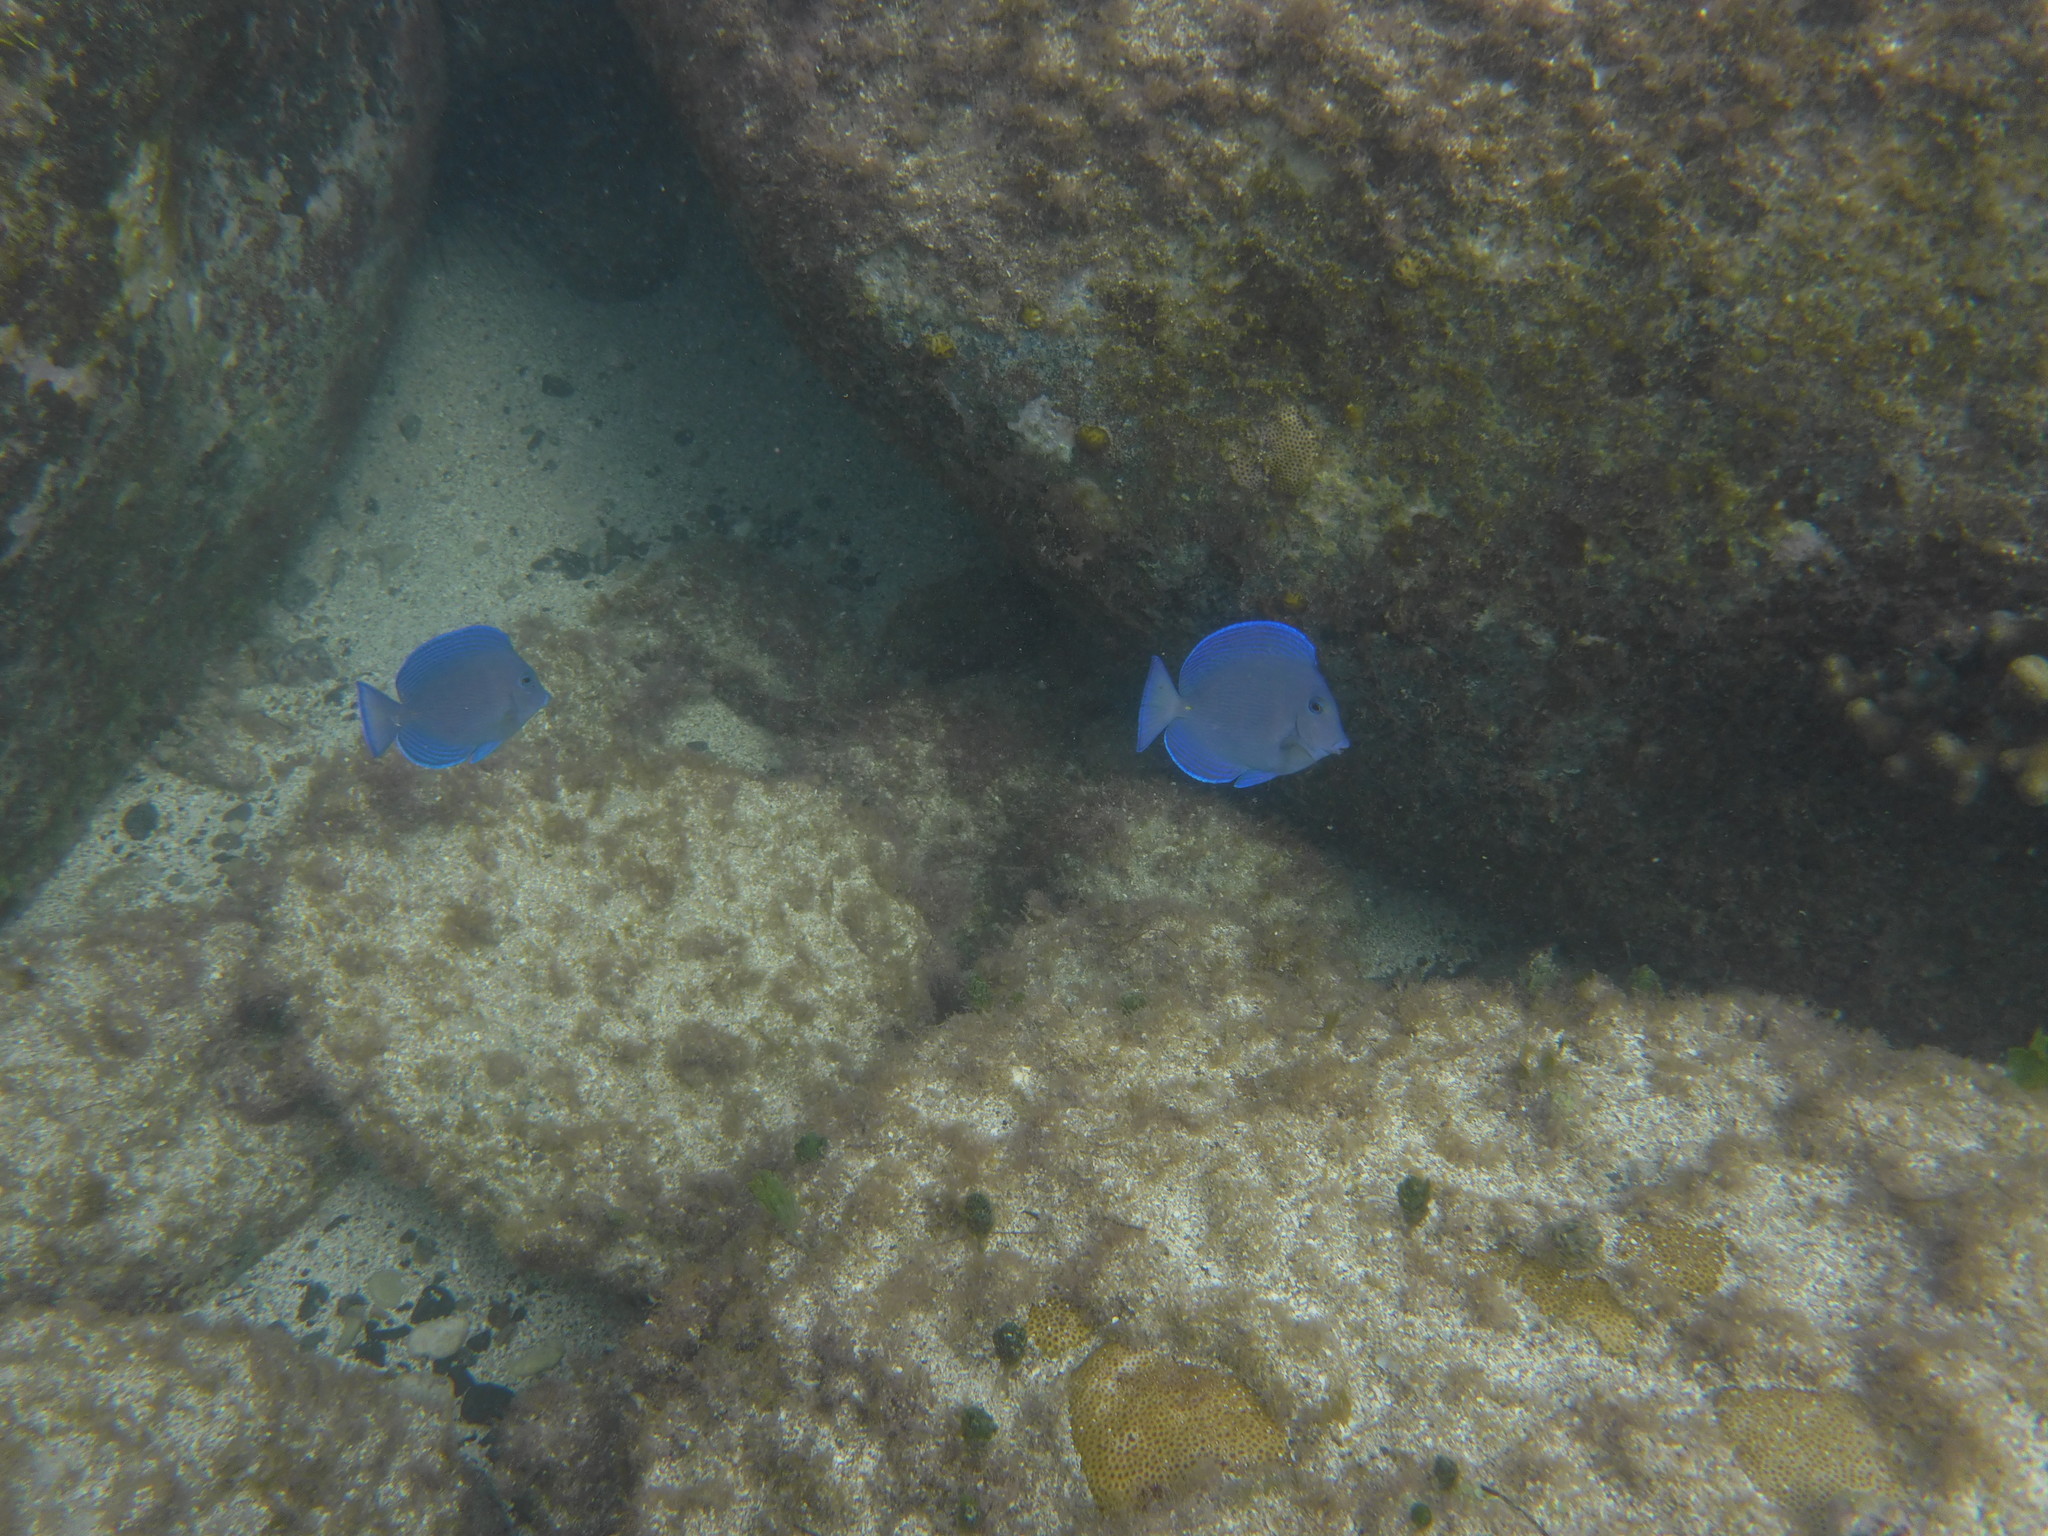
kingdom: Animalia
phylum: Chordata
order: Perciformes
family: Acanthuridae
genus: Acanthurus
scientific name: Acanthurus coeruleus
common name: Blue tang
